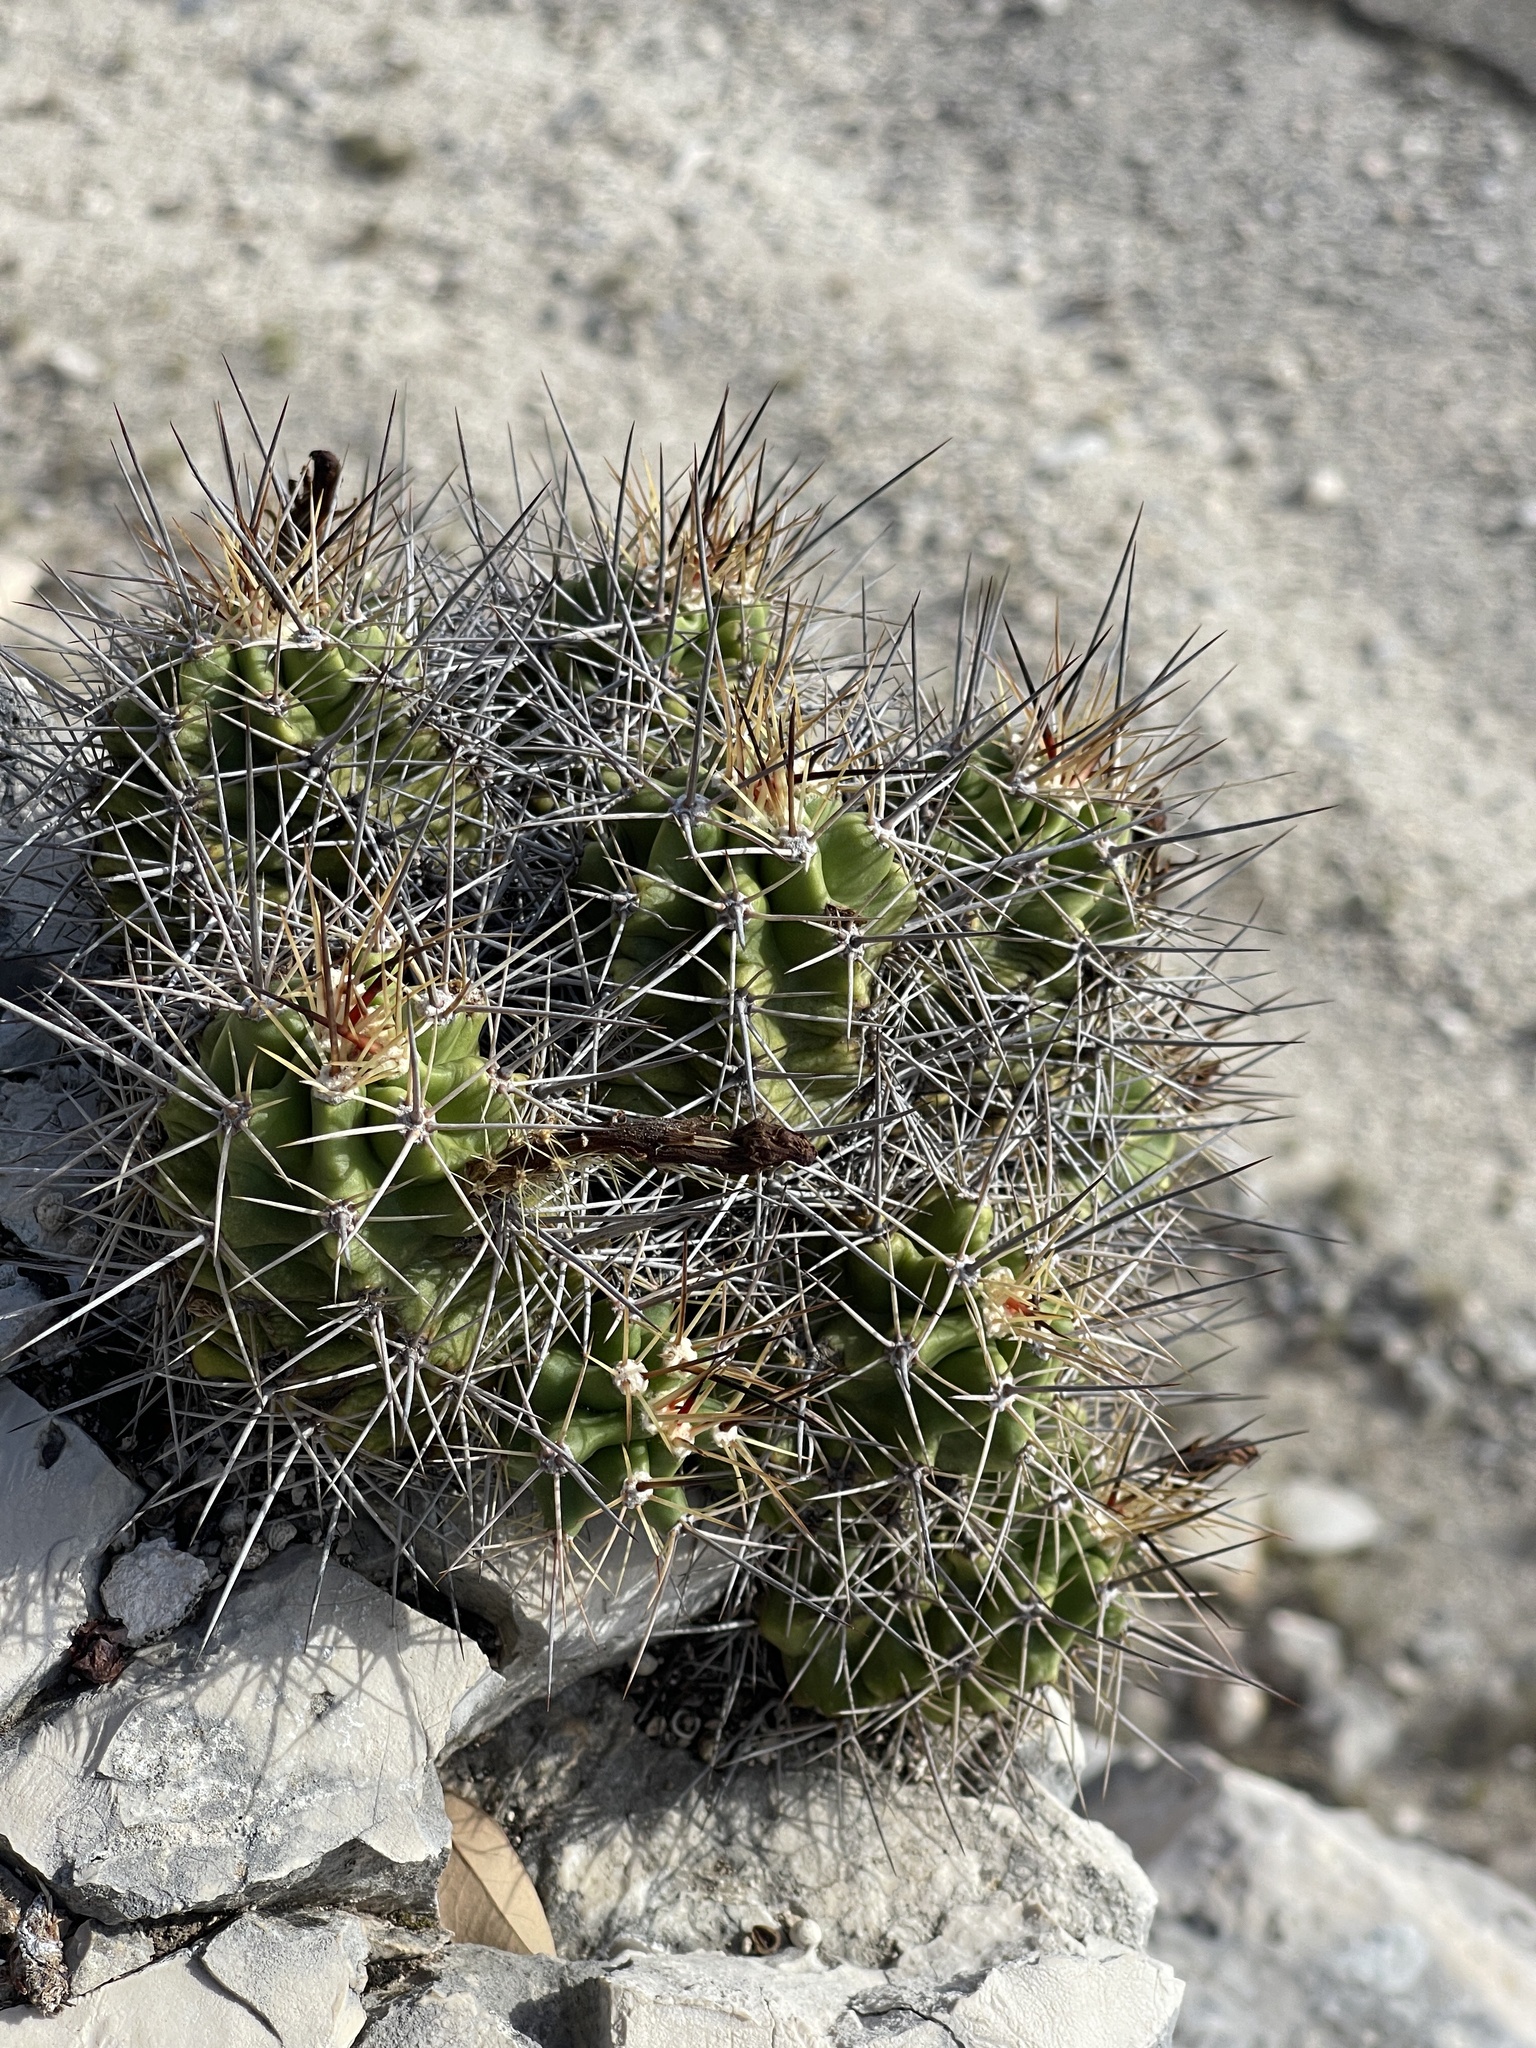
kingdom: Plantae
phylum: Tracheophyta
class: Magnoliopsida
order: Caryophyllales
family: Cactaceae
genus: Echinocereus
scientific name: Echinocereus coccineus
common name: Scarlet hedgehog cactus
